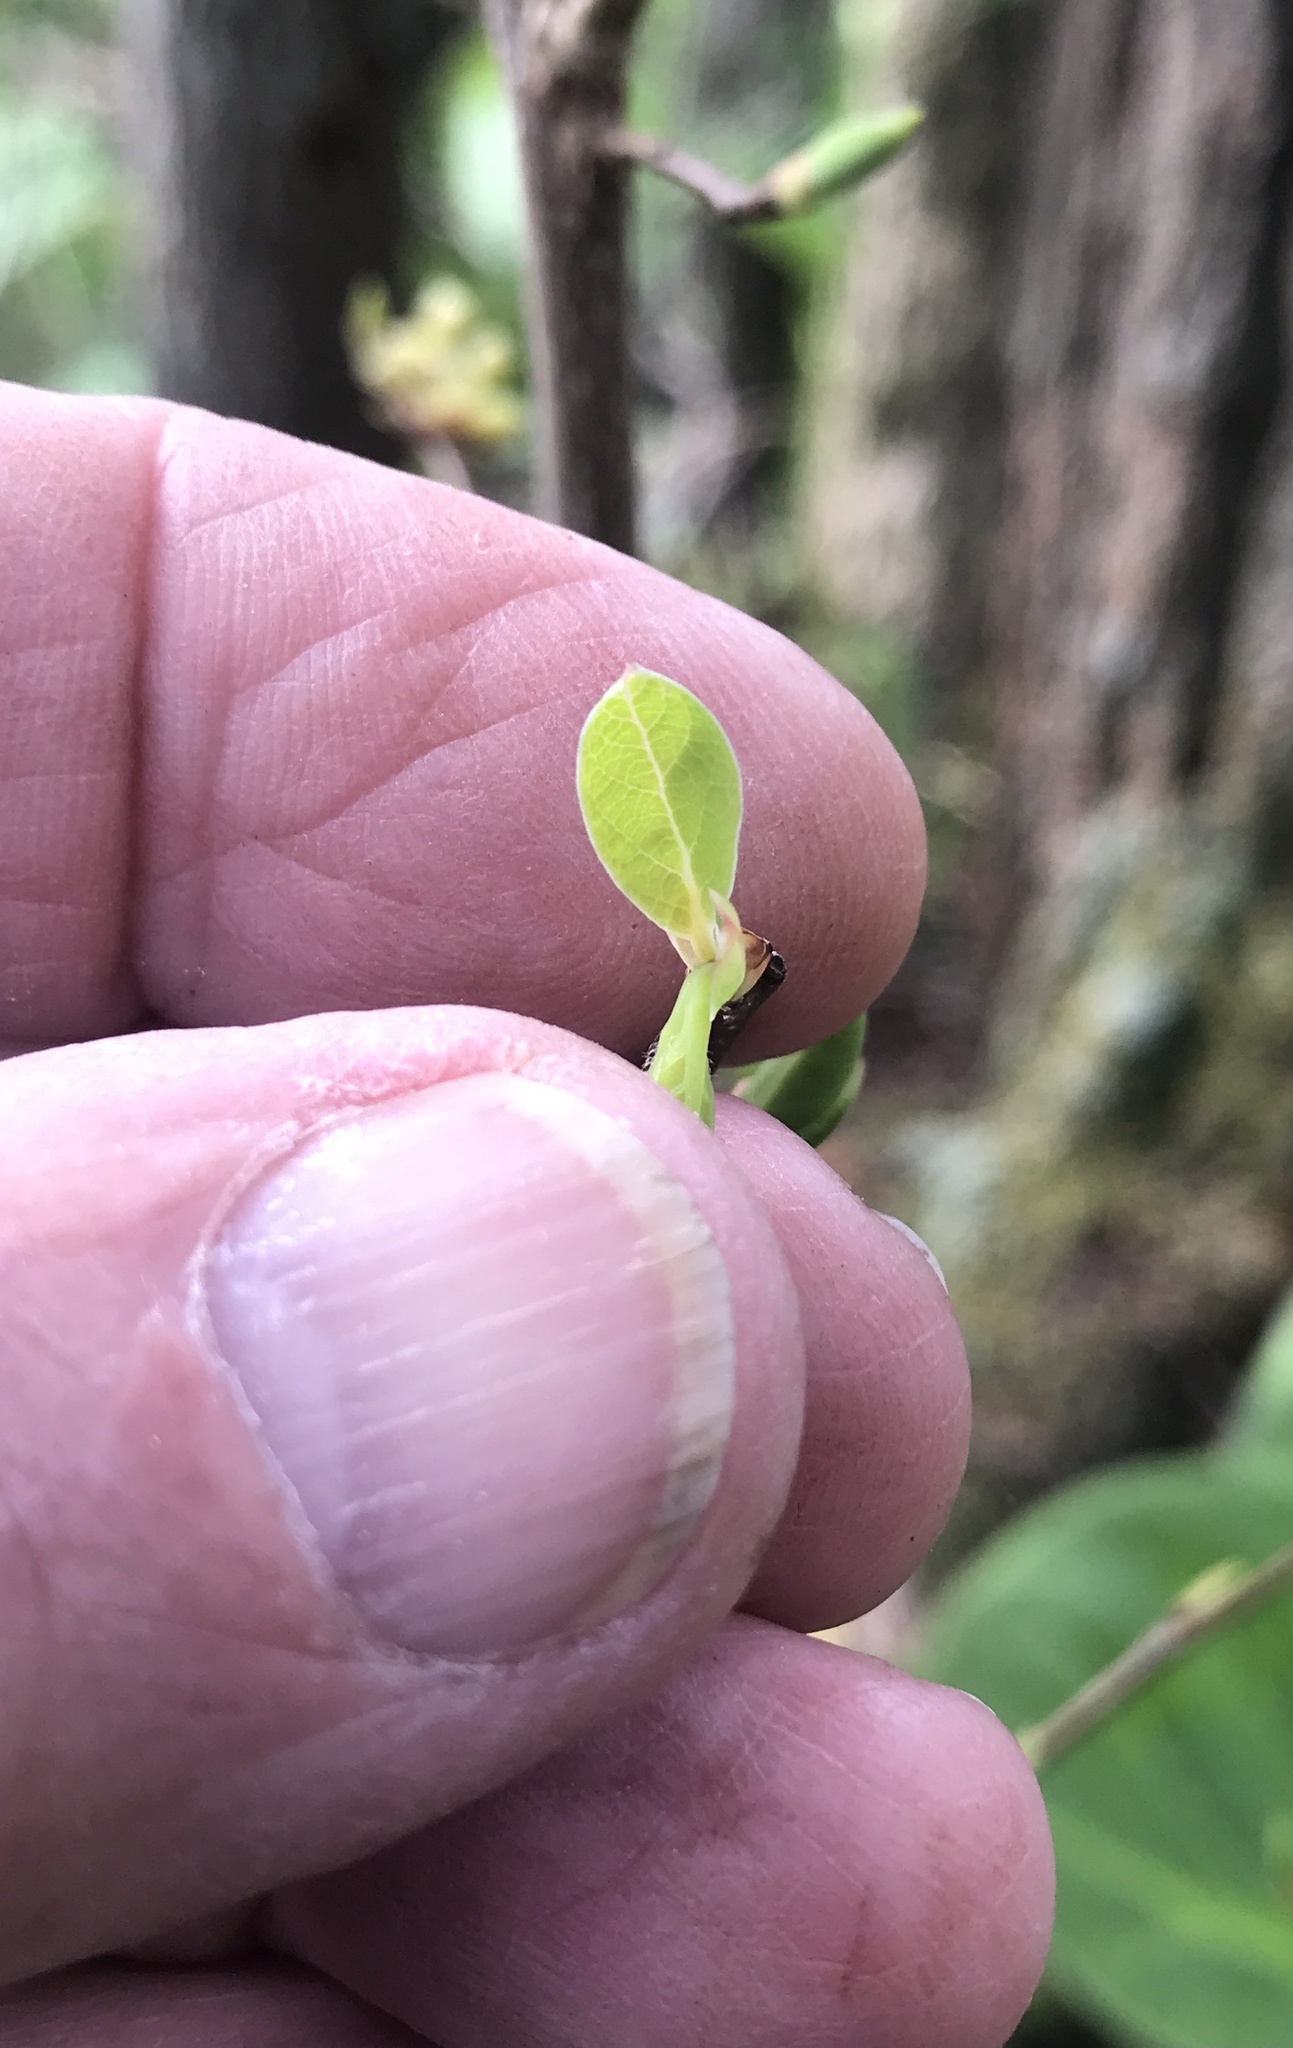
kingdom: Plantae
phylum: Tracheophyta
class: Magnoliopsida
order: Laurales
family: Lauraceae
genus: Lindera
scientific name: Lindera benzoin
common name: Spicebush
